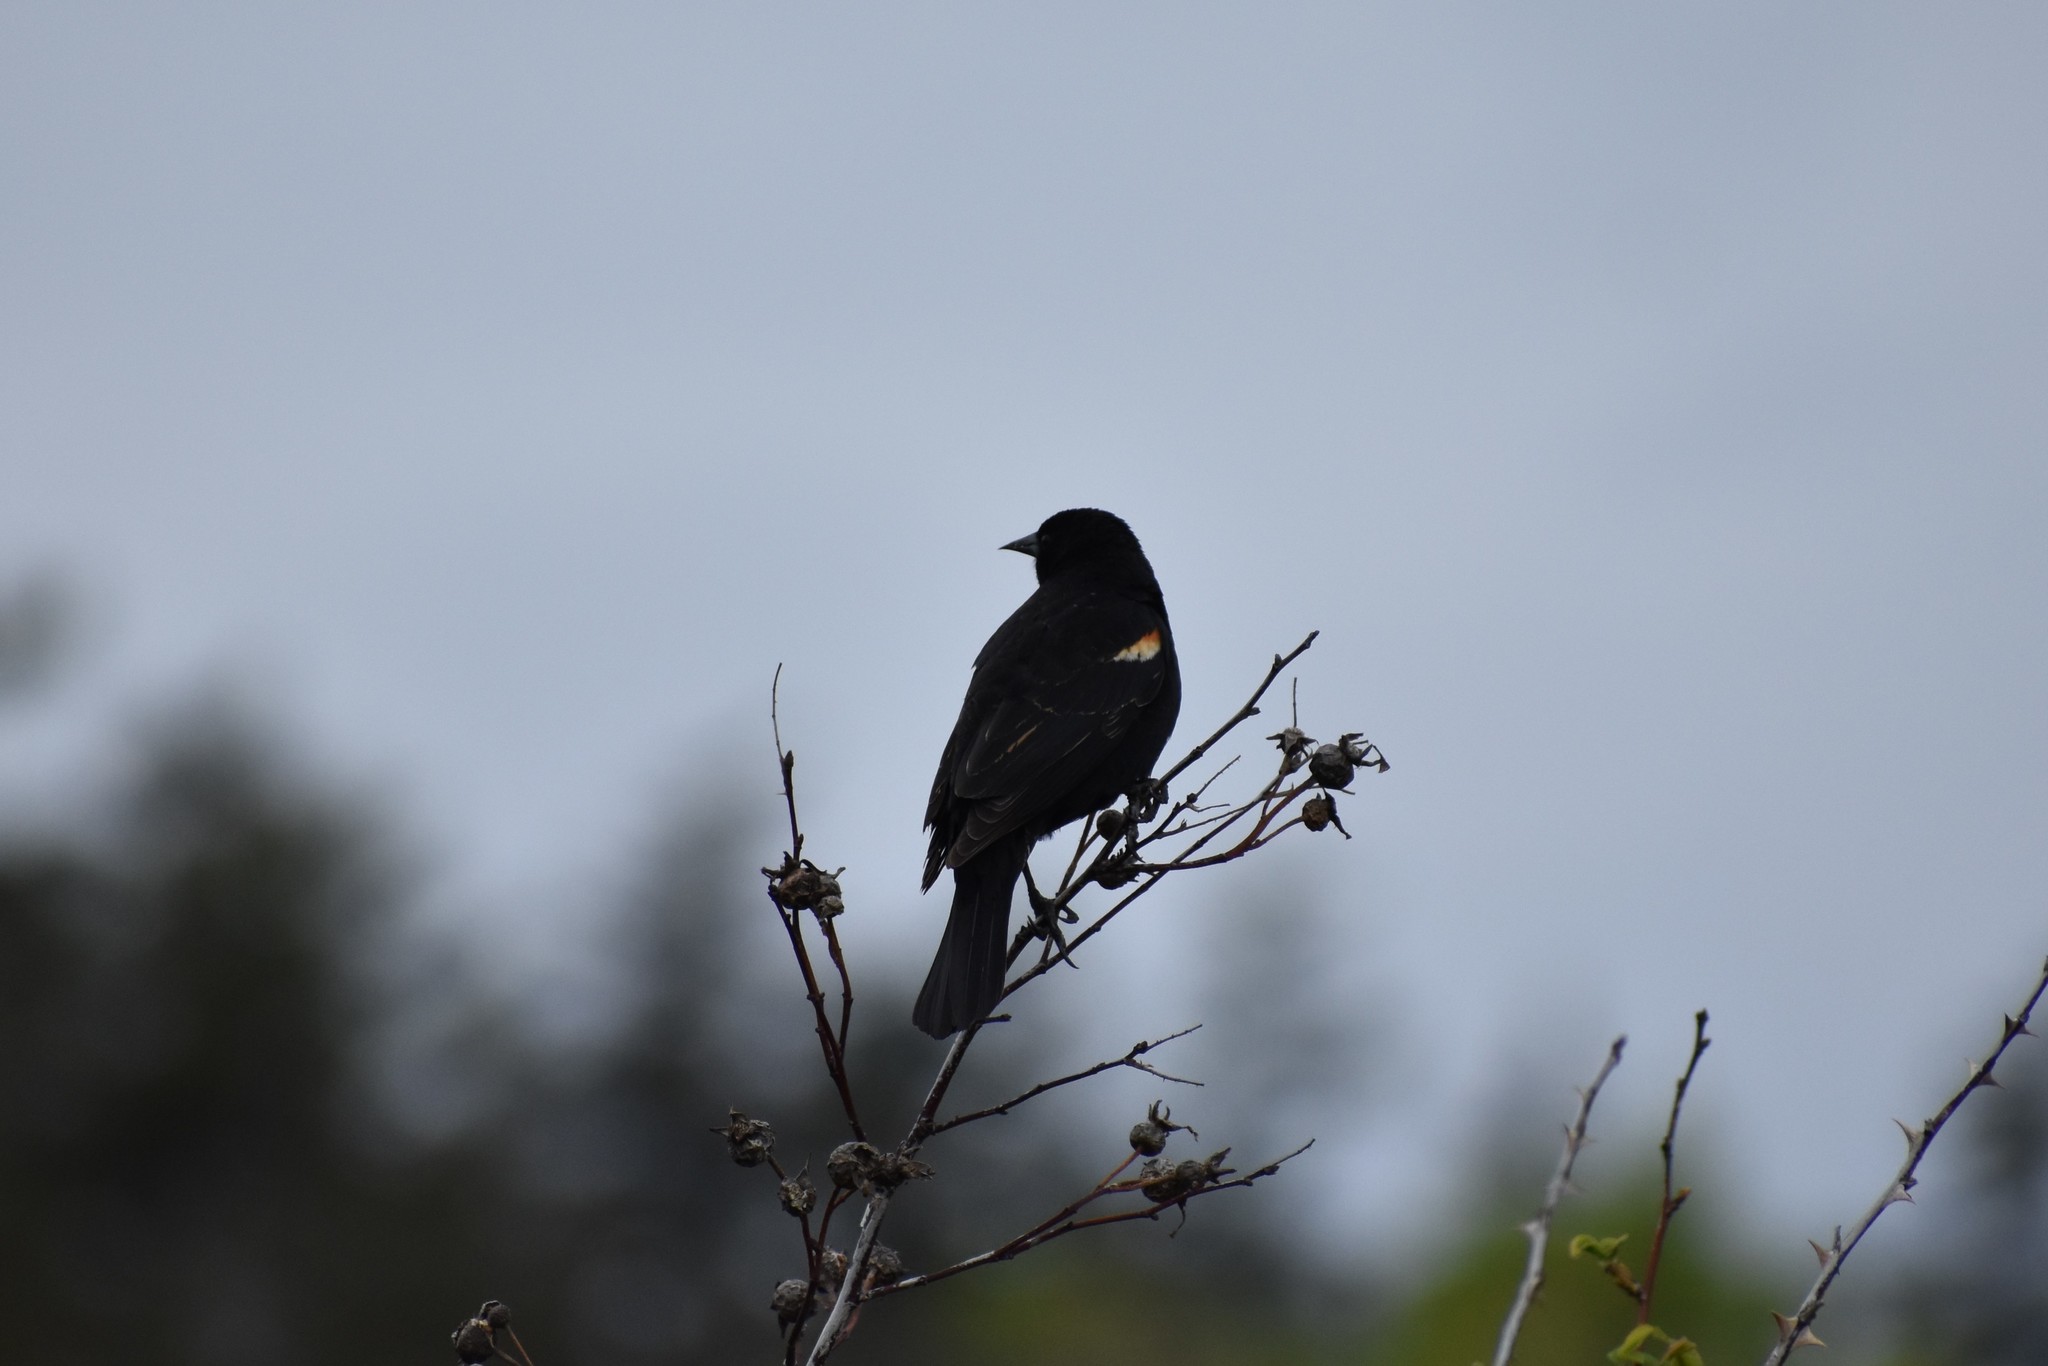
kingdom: Animalia
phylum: Chordata
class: Aves
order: Passeriformes
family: Icteridae
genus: Agelaius
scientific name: Agelaius phoeniceus
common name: Red-winged blackbird
